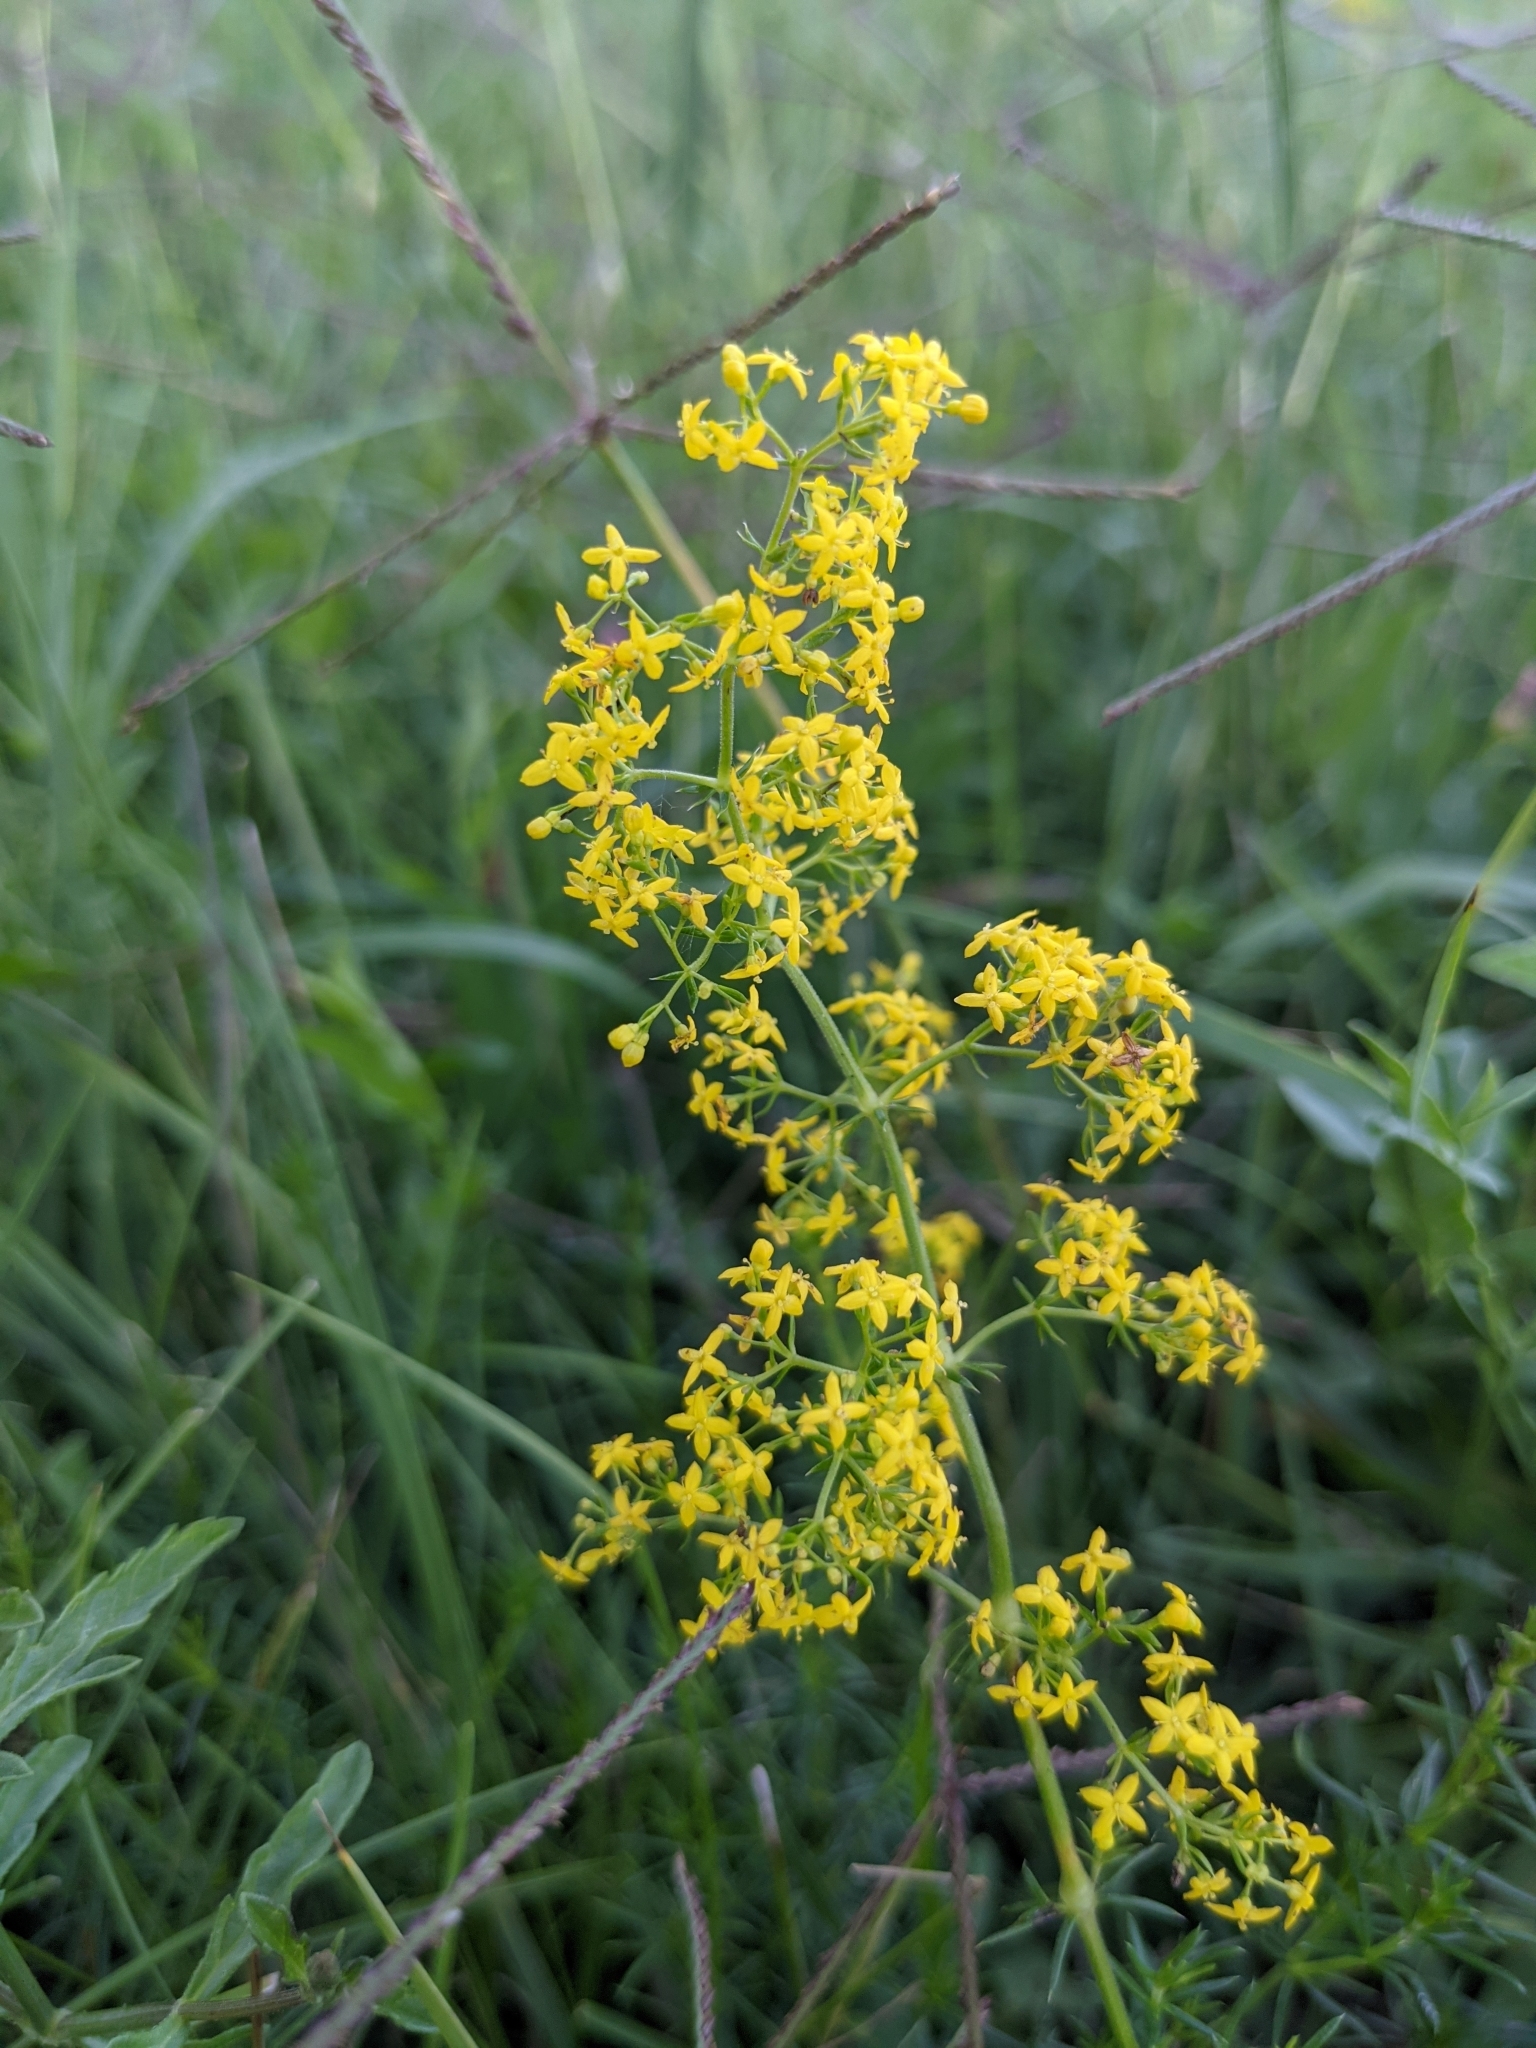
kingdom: Plantae
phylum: Tracheophyta
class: Magnoliopsida
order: Gentianales
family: Rubiaceae
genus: Galium
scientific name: Galium verum
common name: Lady's bedstraw
